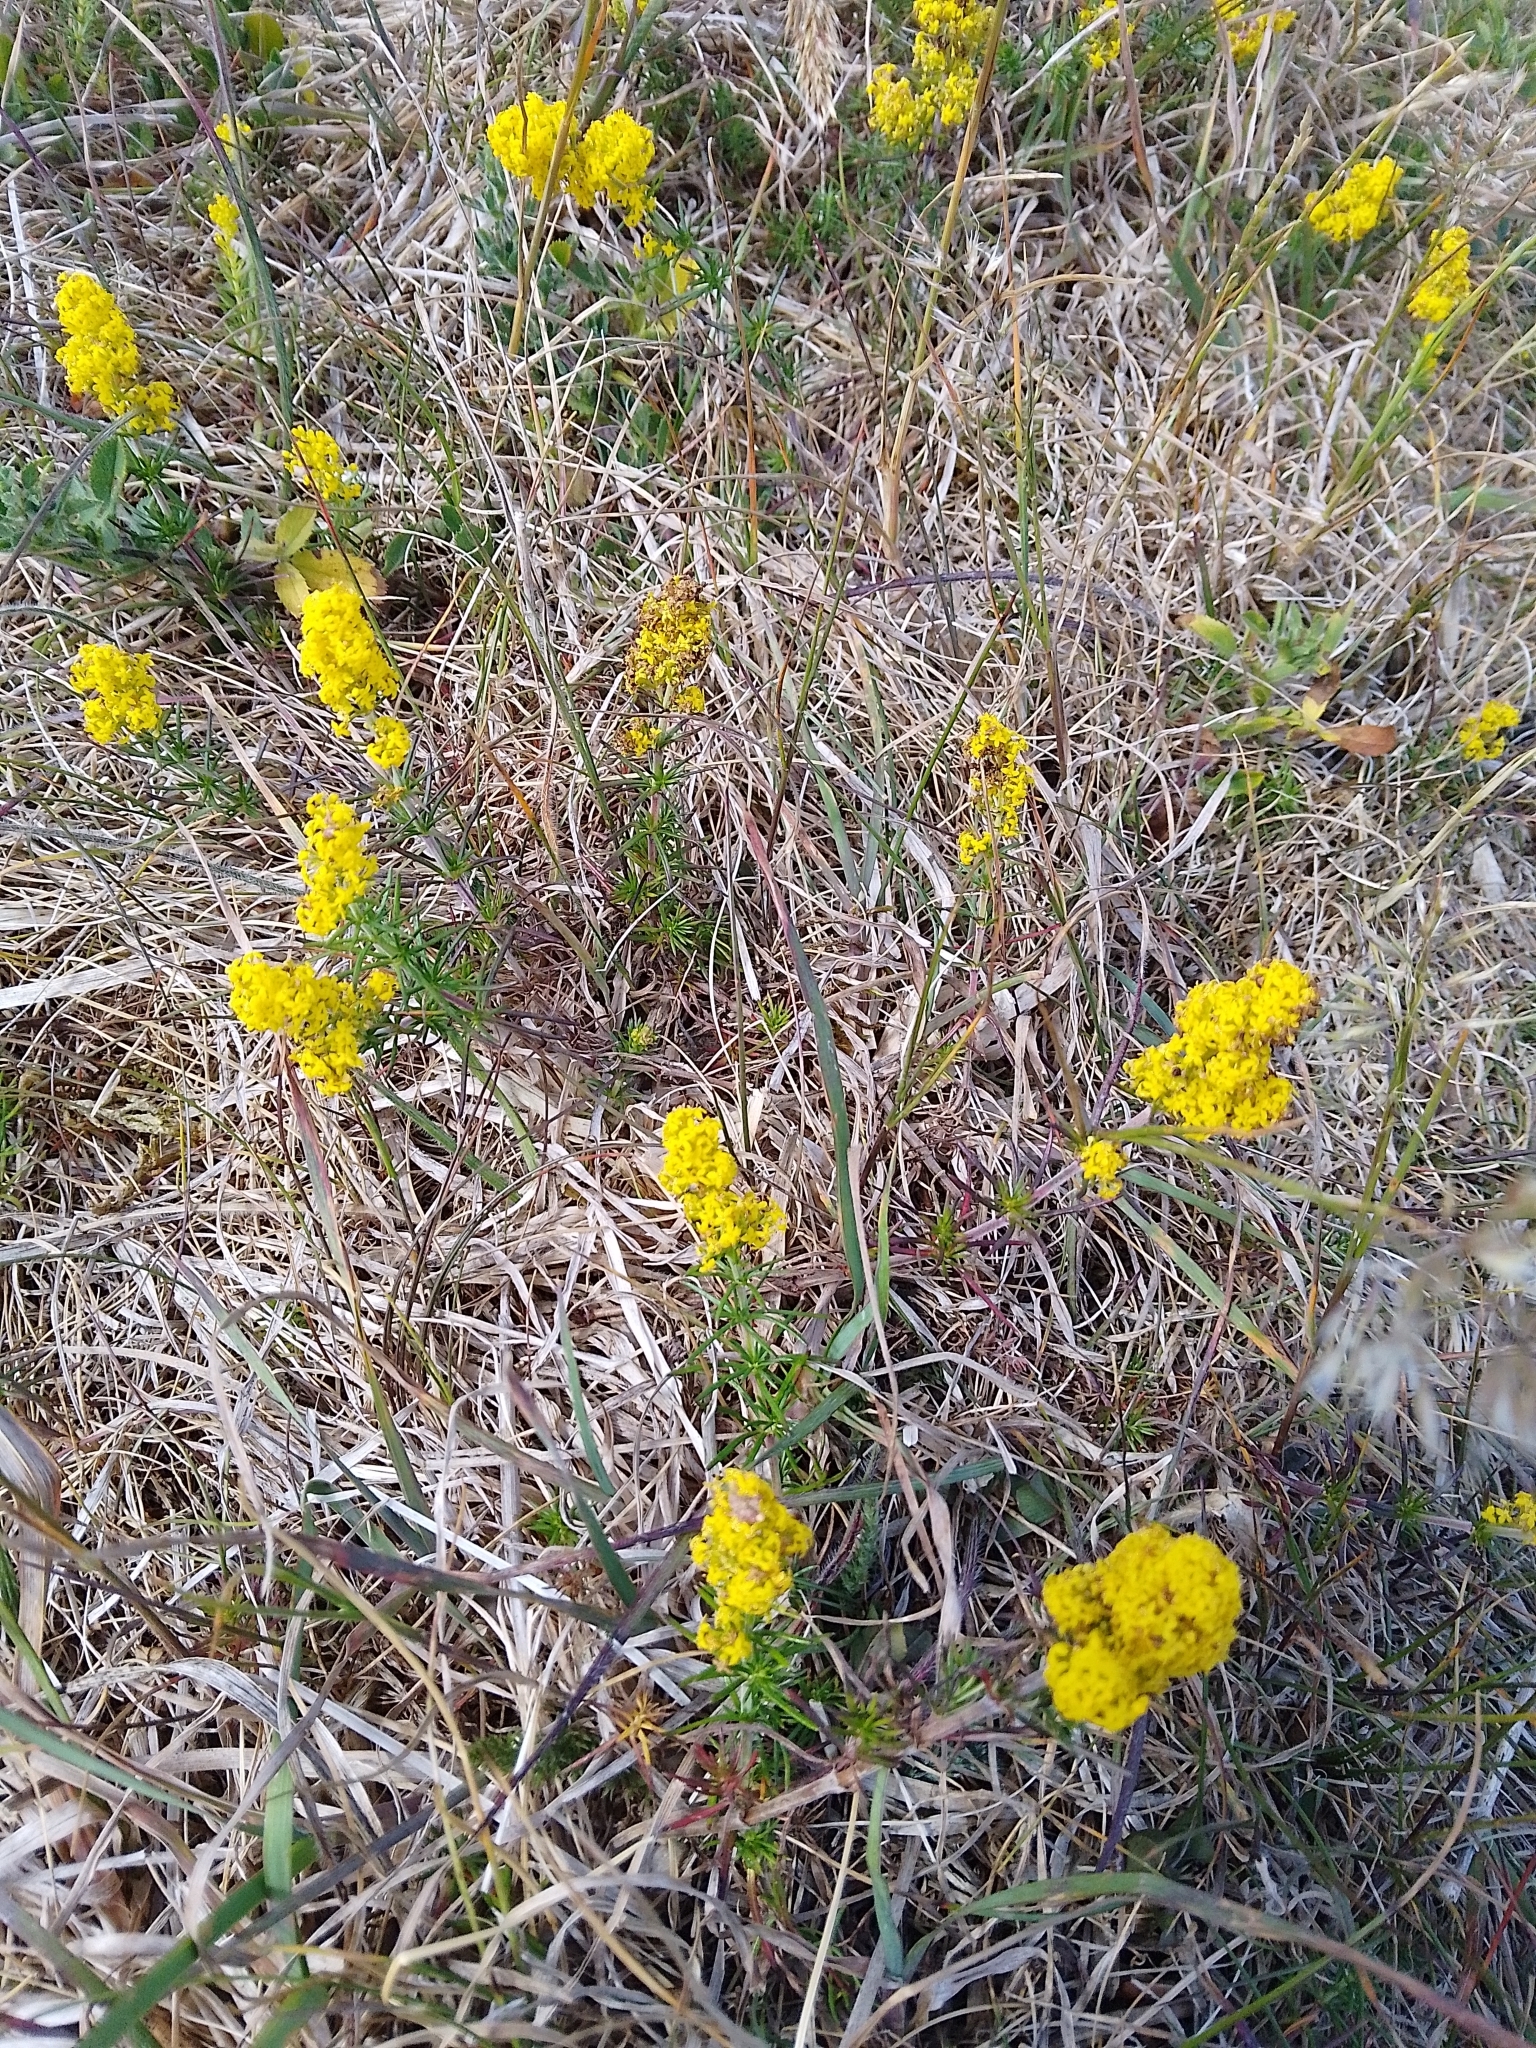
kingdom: Plantae
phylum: Tracheophyta
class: Magnoliopsida
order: Gentianales
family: Rubiaceae
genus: Galium
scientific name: Galium verum
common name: Lady's bedstraw
